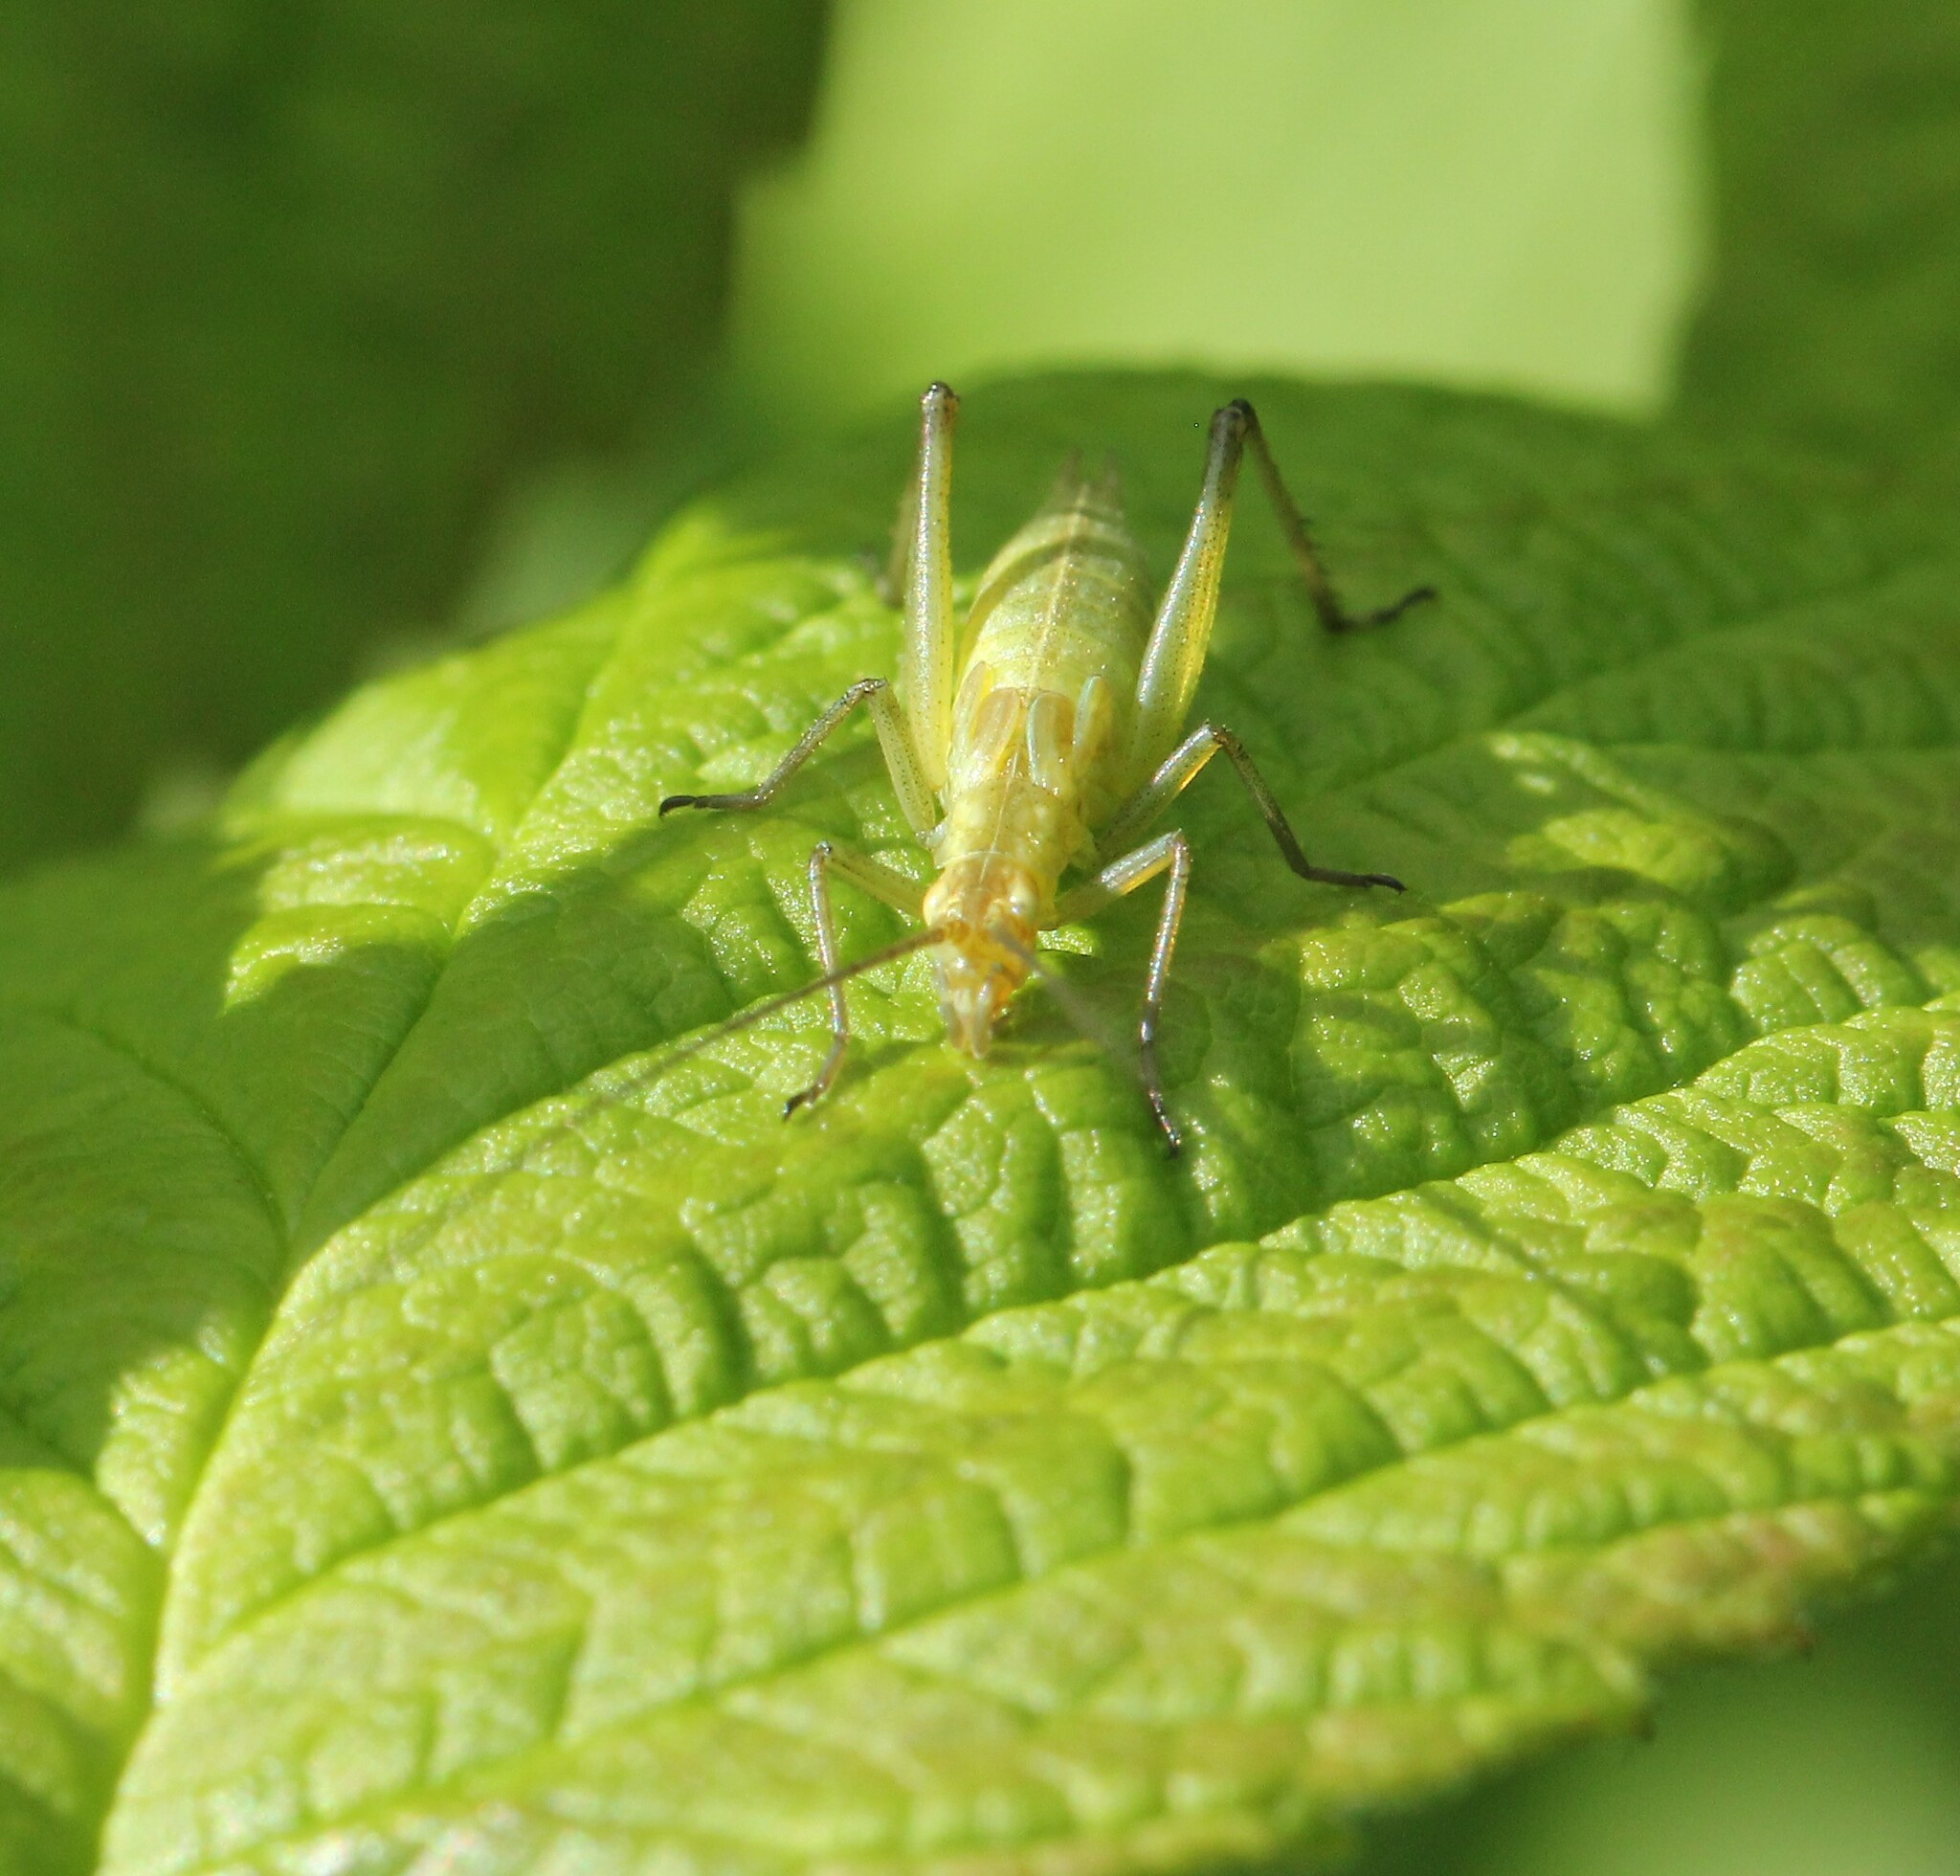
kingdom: Animalia
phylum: Arthropoda
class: Insecta
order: Orthoptera
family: Gryllidae
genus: Oecanthus
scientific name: Oecanthus nigricornis
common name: Black-horned tree cricket
